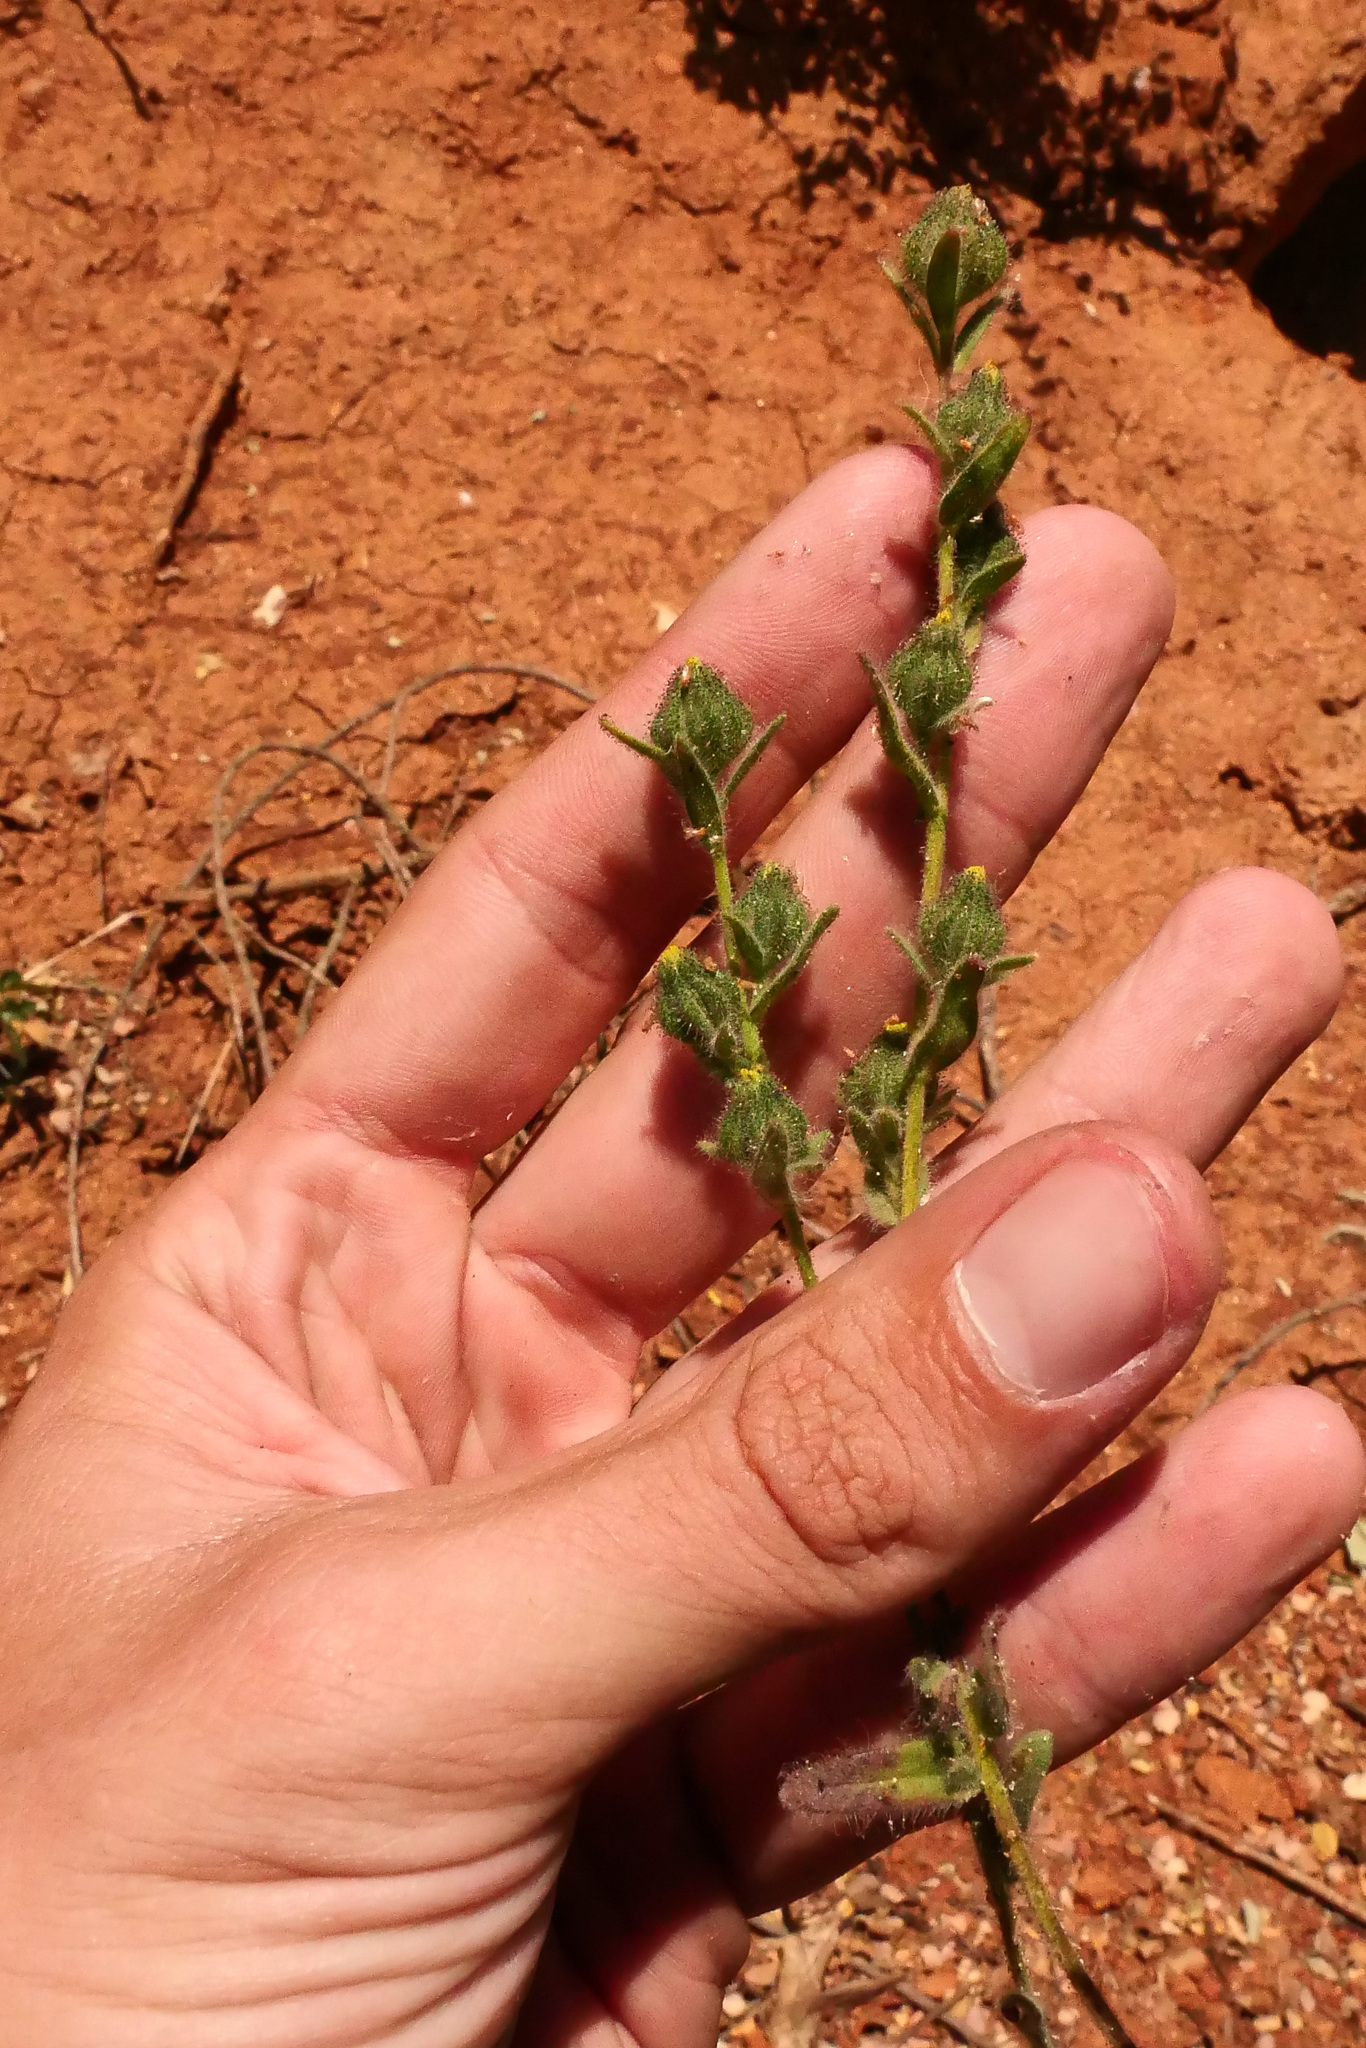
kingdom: Plantae
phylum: Tracheophyta
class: Magnoliopsida
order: Asterales
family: Asteraceae
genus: Madia
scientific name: Madia gracilis
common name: Grassy tarweed
